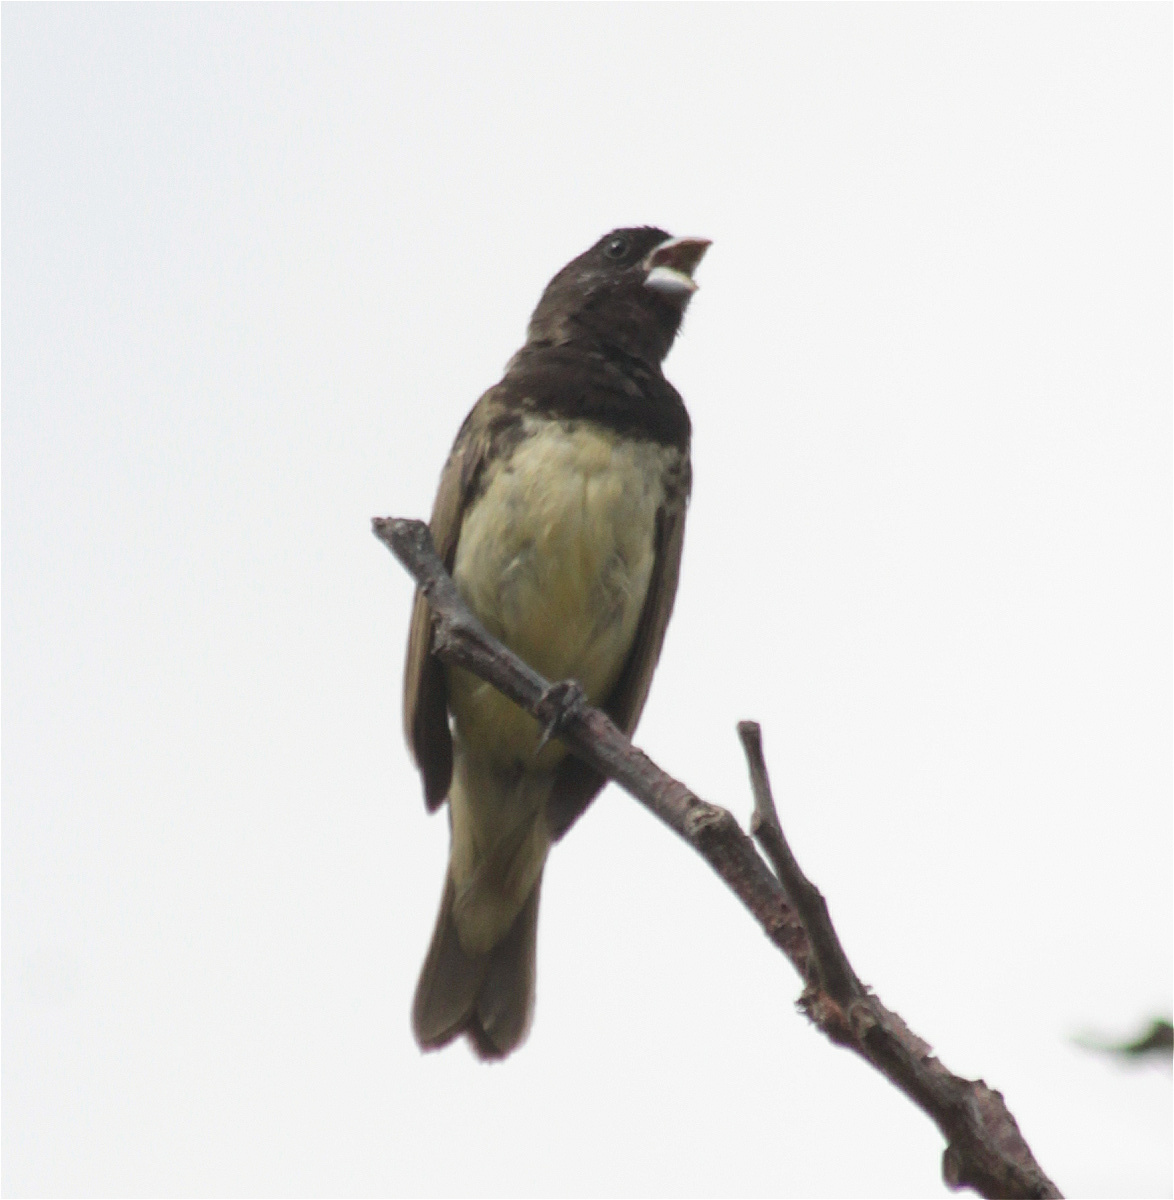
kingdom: Animalia
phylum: Chordata
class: Aves
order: Passeriformes
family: Thraupidae
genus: Sporophila
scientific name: Sporophila nigricollis
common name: Yellow-bellied seedeater
